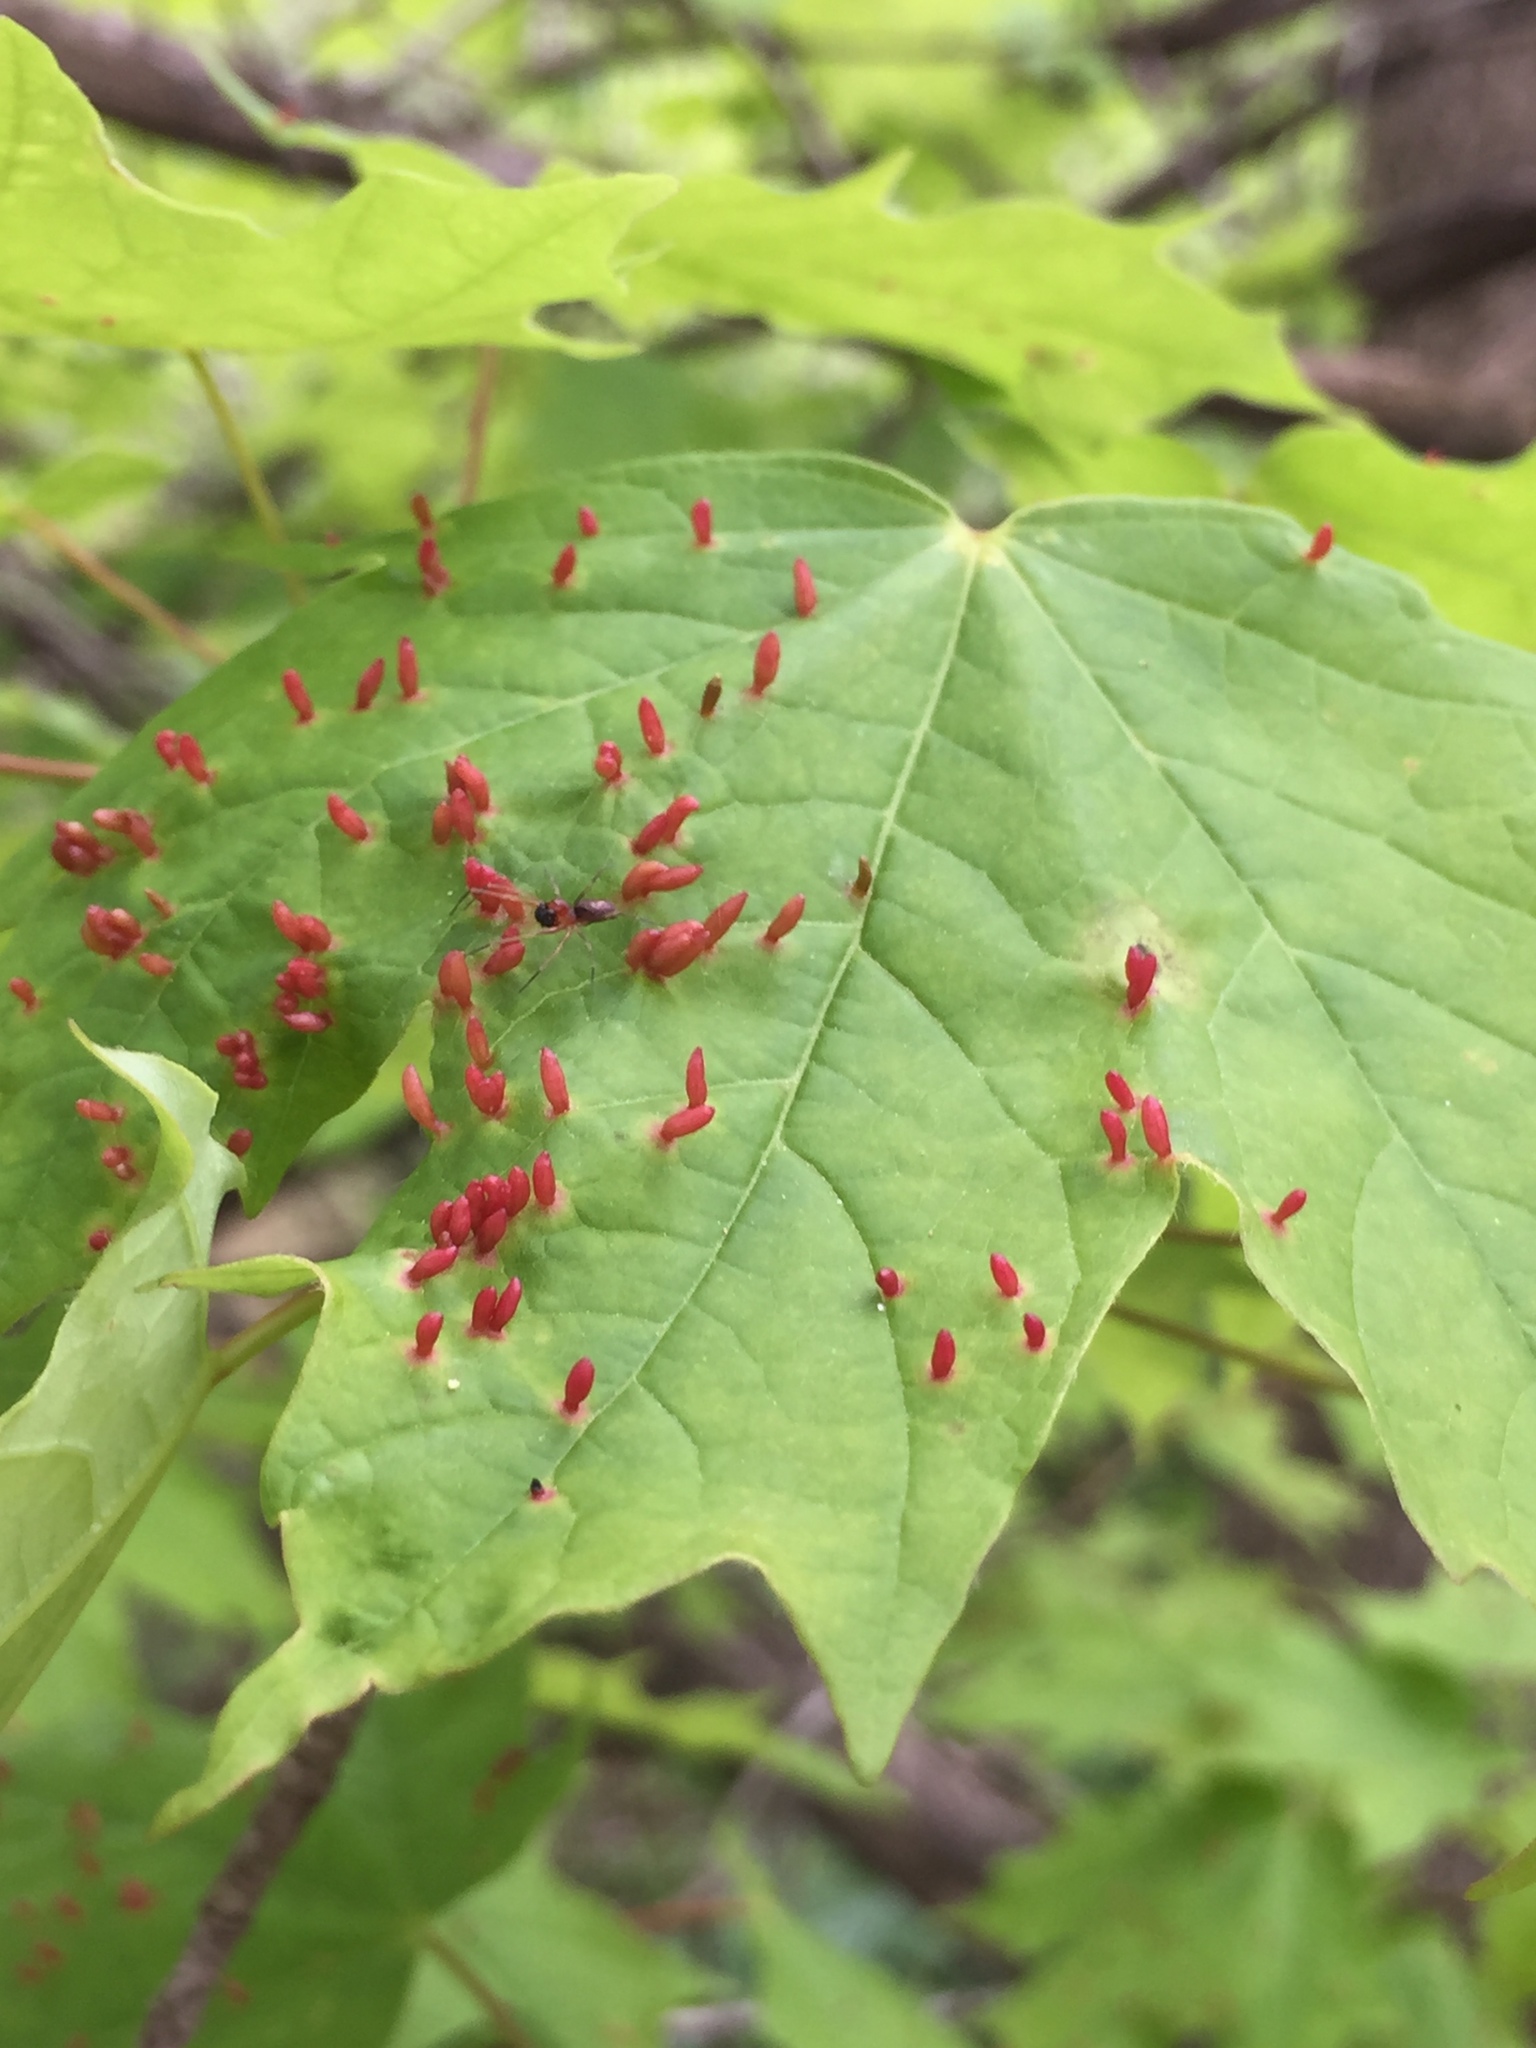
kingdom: Animalia
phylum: Arthropoda
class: Arachnida
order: Trombidiformes
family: Eriophyidae
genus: Vasates
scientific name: Vasates aceriscrumena
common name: Maple spindle gall mite
